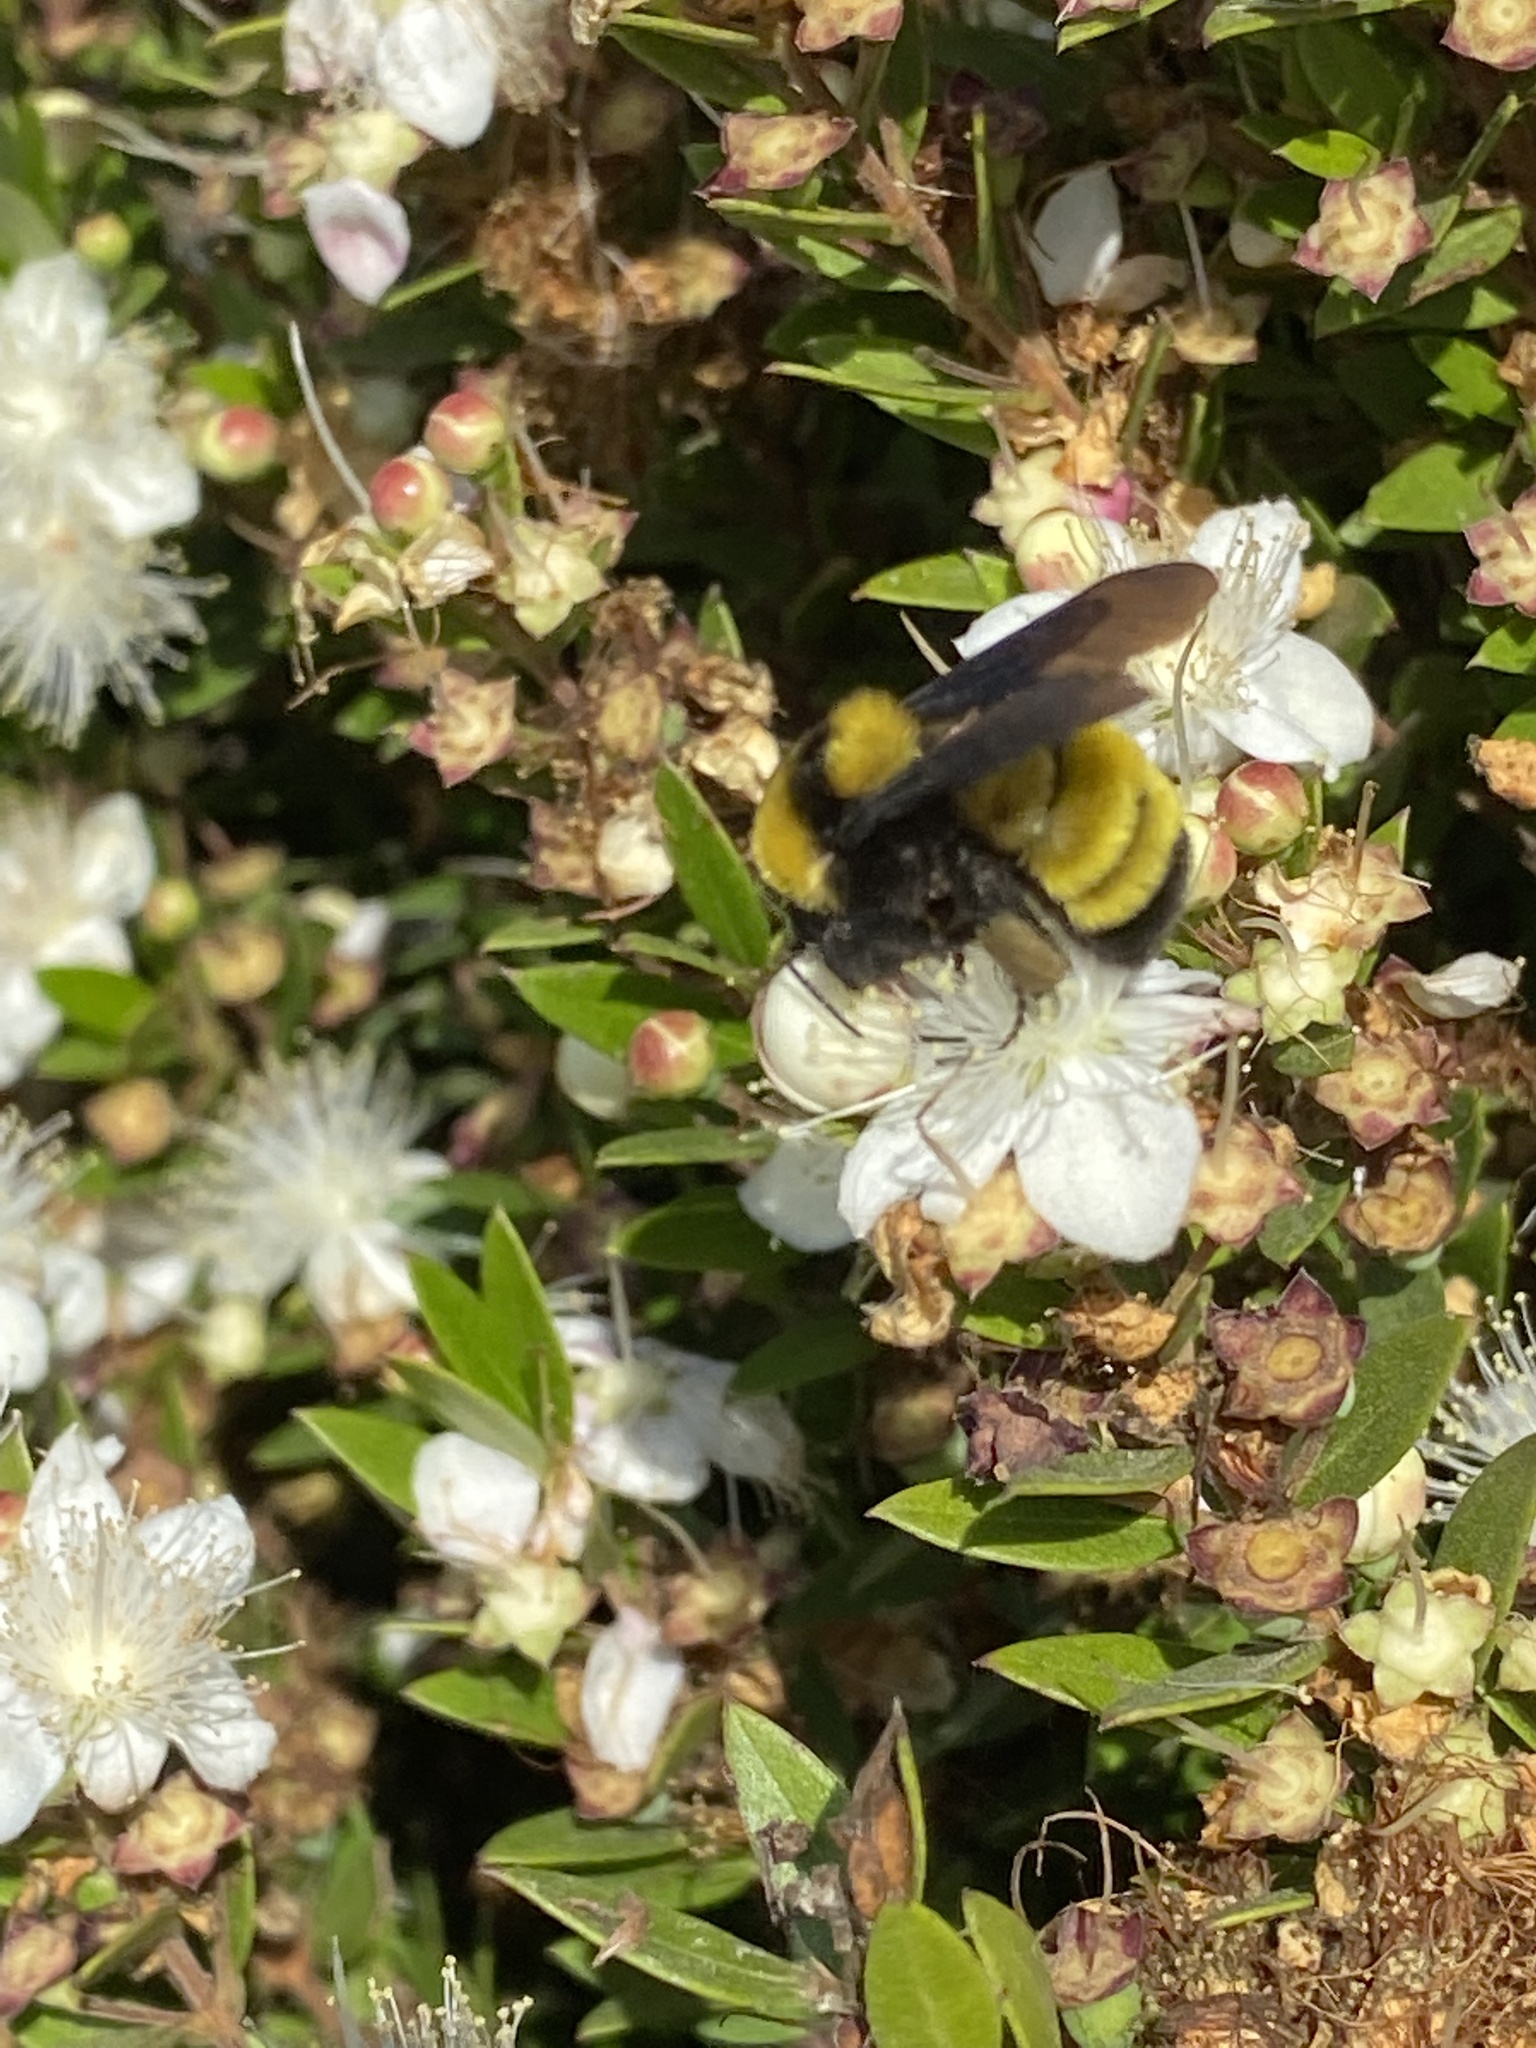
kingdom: Animalia
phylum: Arthropoda
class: Insecta
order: Hymenoptera
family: Apidae
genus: Bombus
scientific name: Bombus sonorus
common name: Sonoran bumble bee
